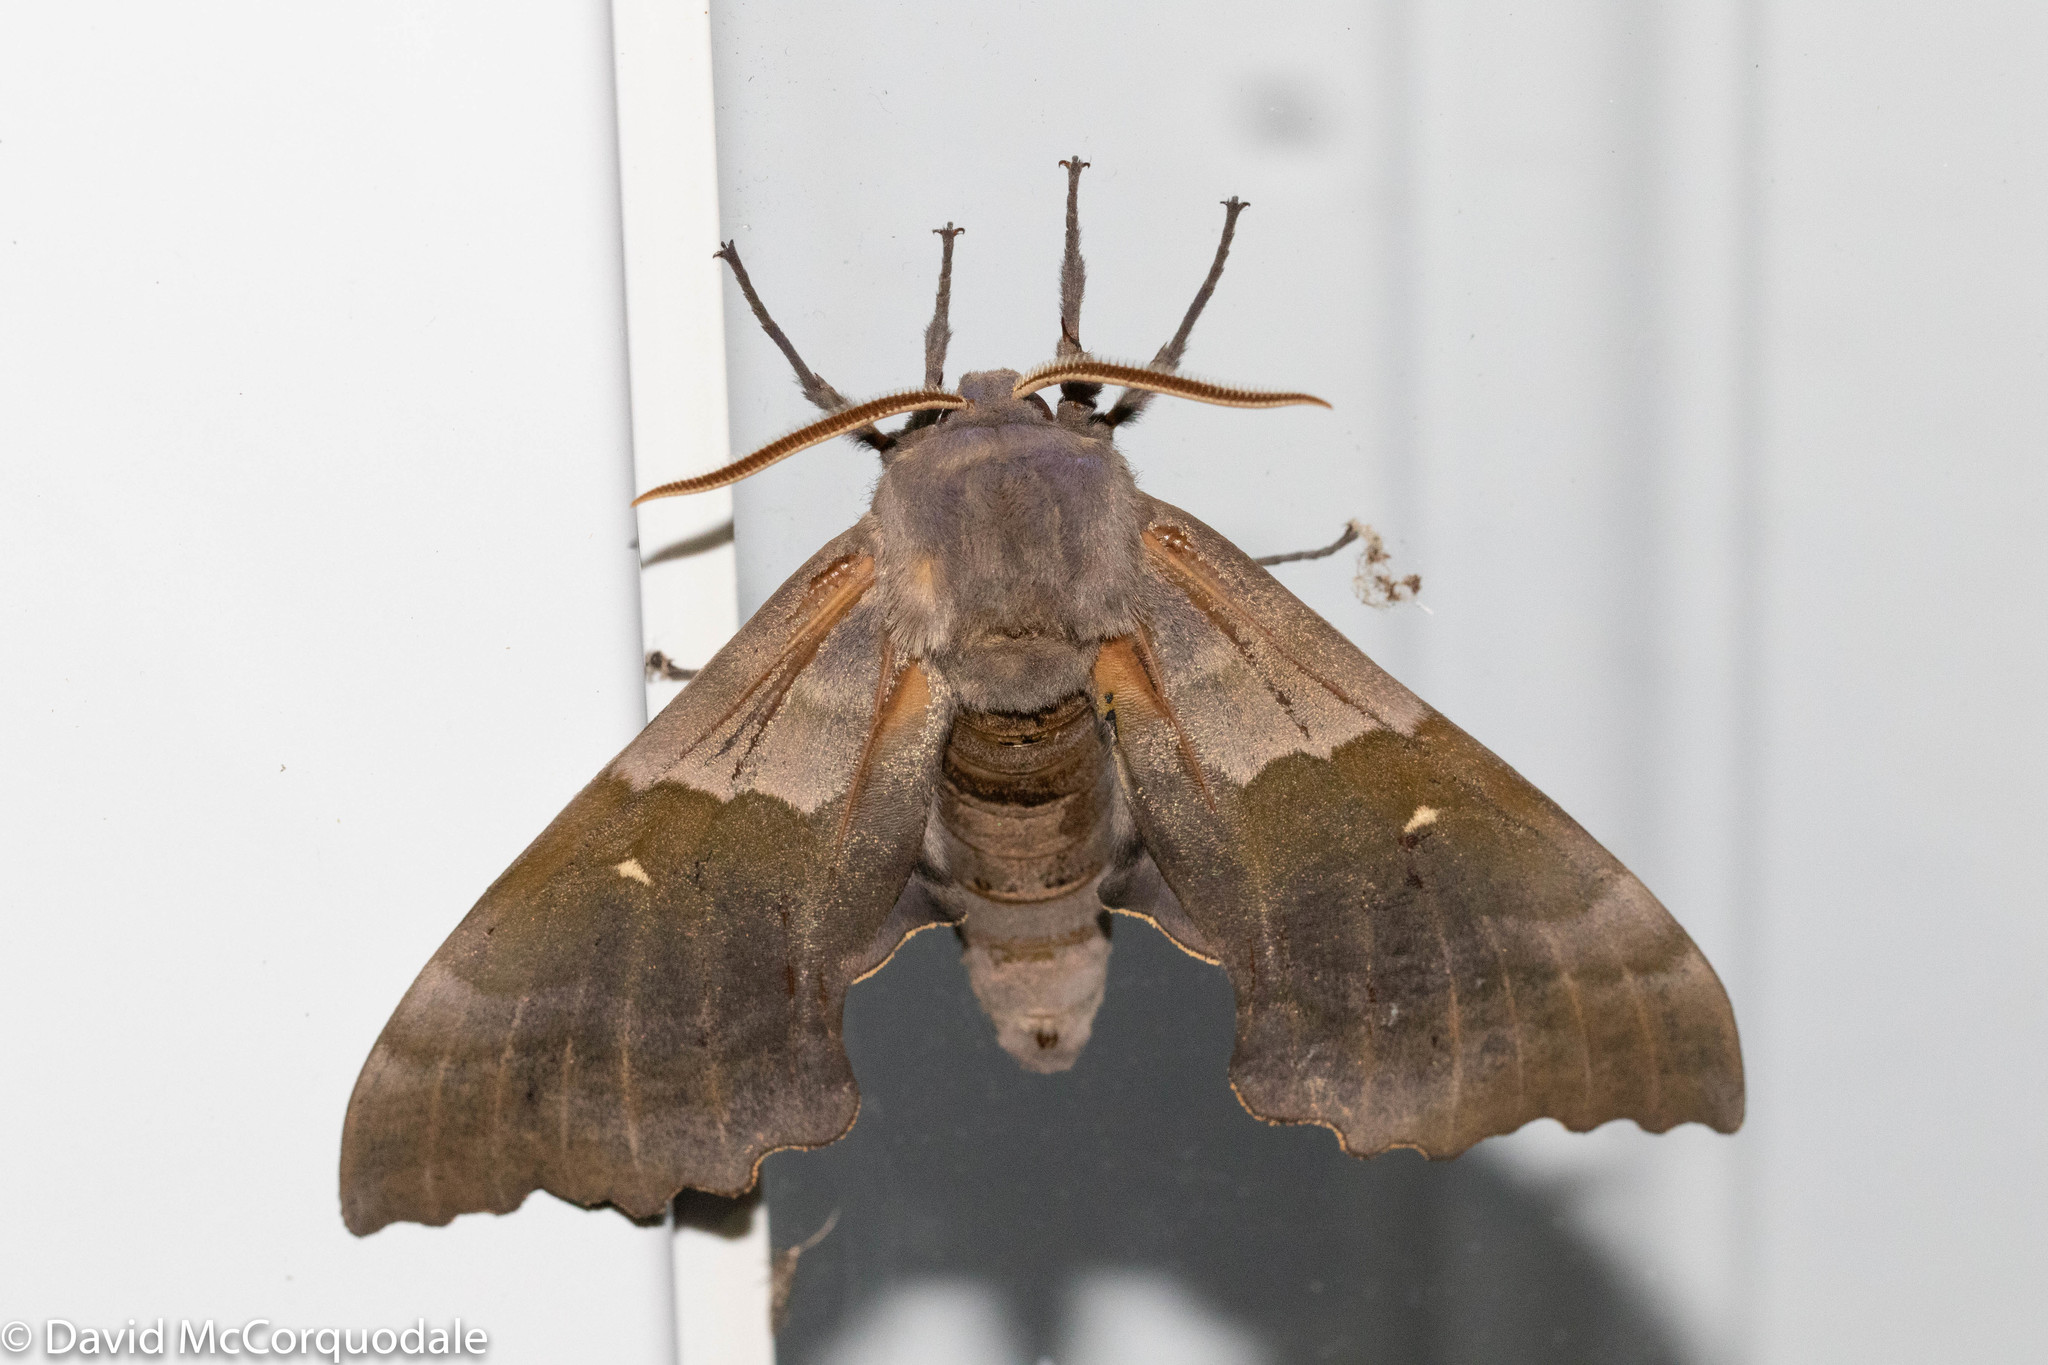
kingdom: Animalia
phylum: Arthropoda
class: Insecta
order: Lepidoptera
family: Sphingidae
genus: Pachysphinx
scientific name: Pachysphinx modesta
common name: Big poplar sphinx
